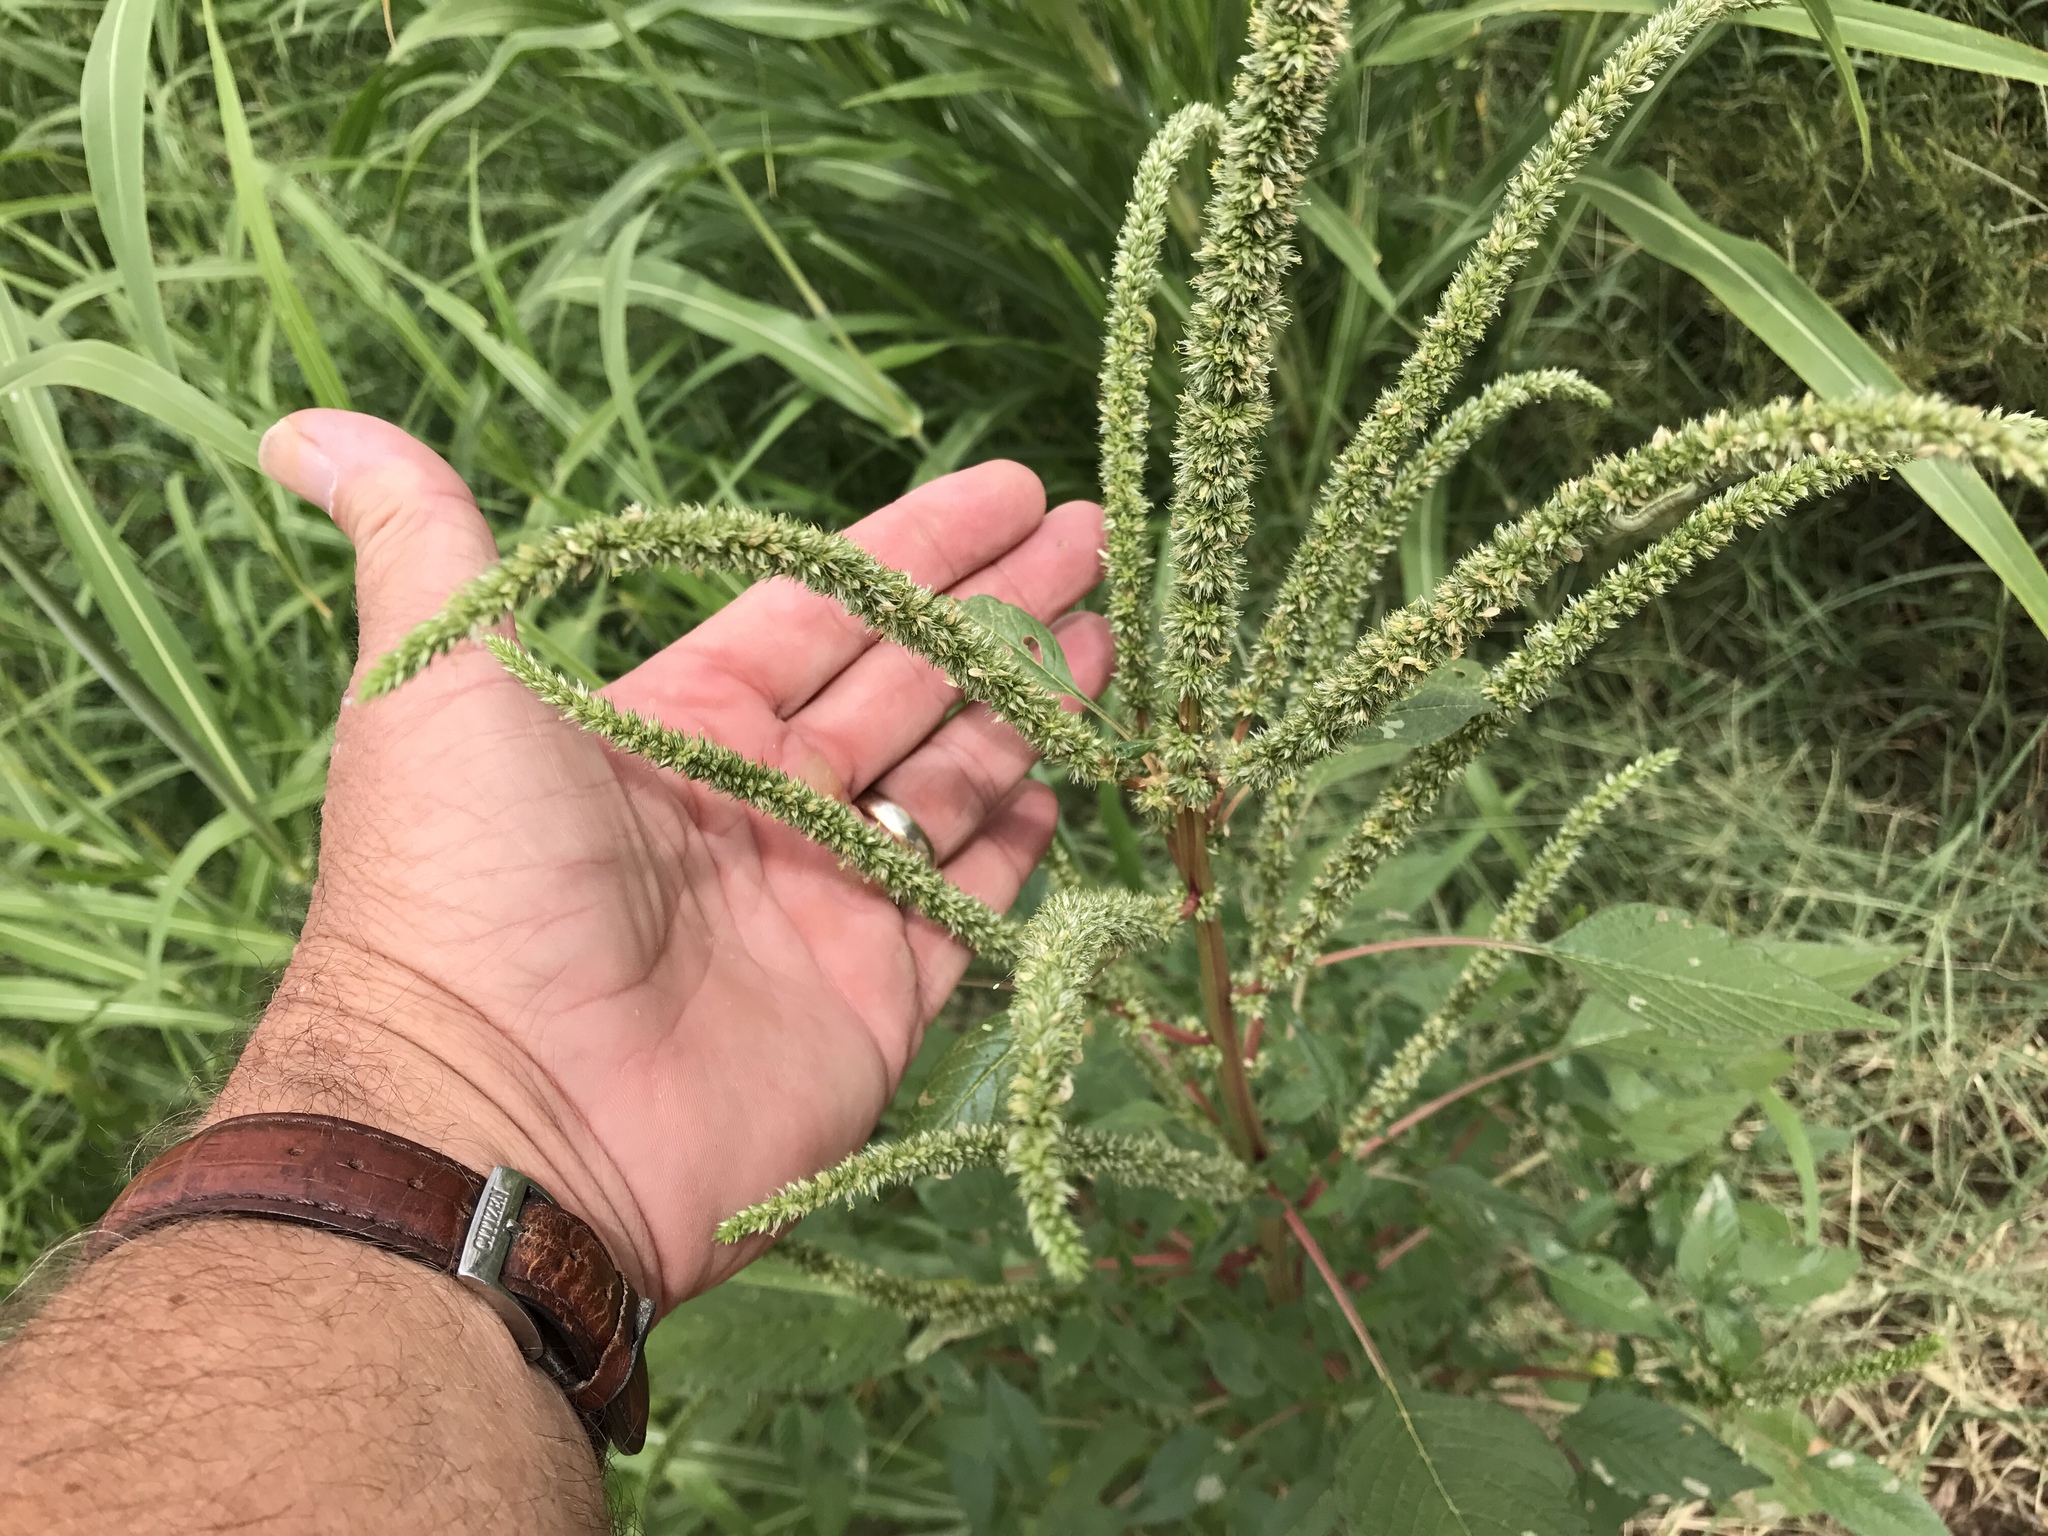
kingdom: Plantae
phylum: Tracheophyta
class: Magnoliopsida
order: Caryophyllales
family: Amaranthaceae
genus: Amaranthus
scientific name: Amaranthus palmeri
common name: Dioecious amaranth
